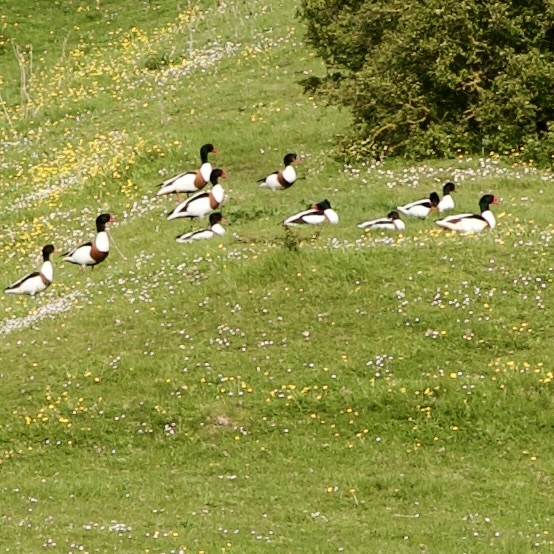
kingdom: Animalia
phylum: Chordata
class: Aves
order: Anseriformes
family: Anatidae
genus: Tadorna
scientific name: Tadorna tadorna
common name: Common shelduck
